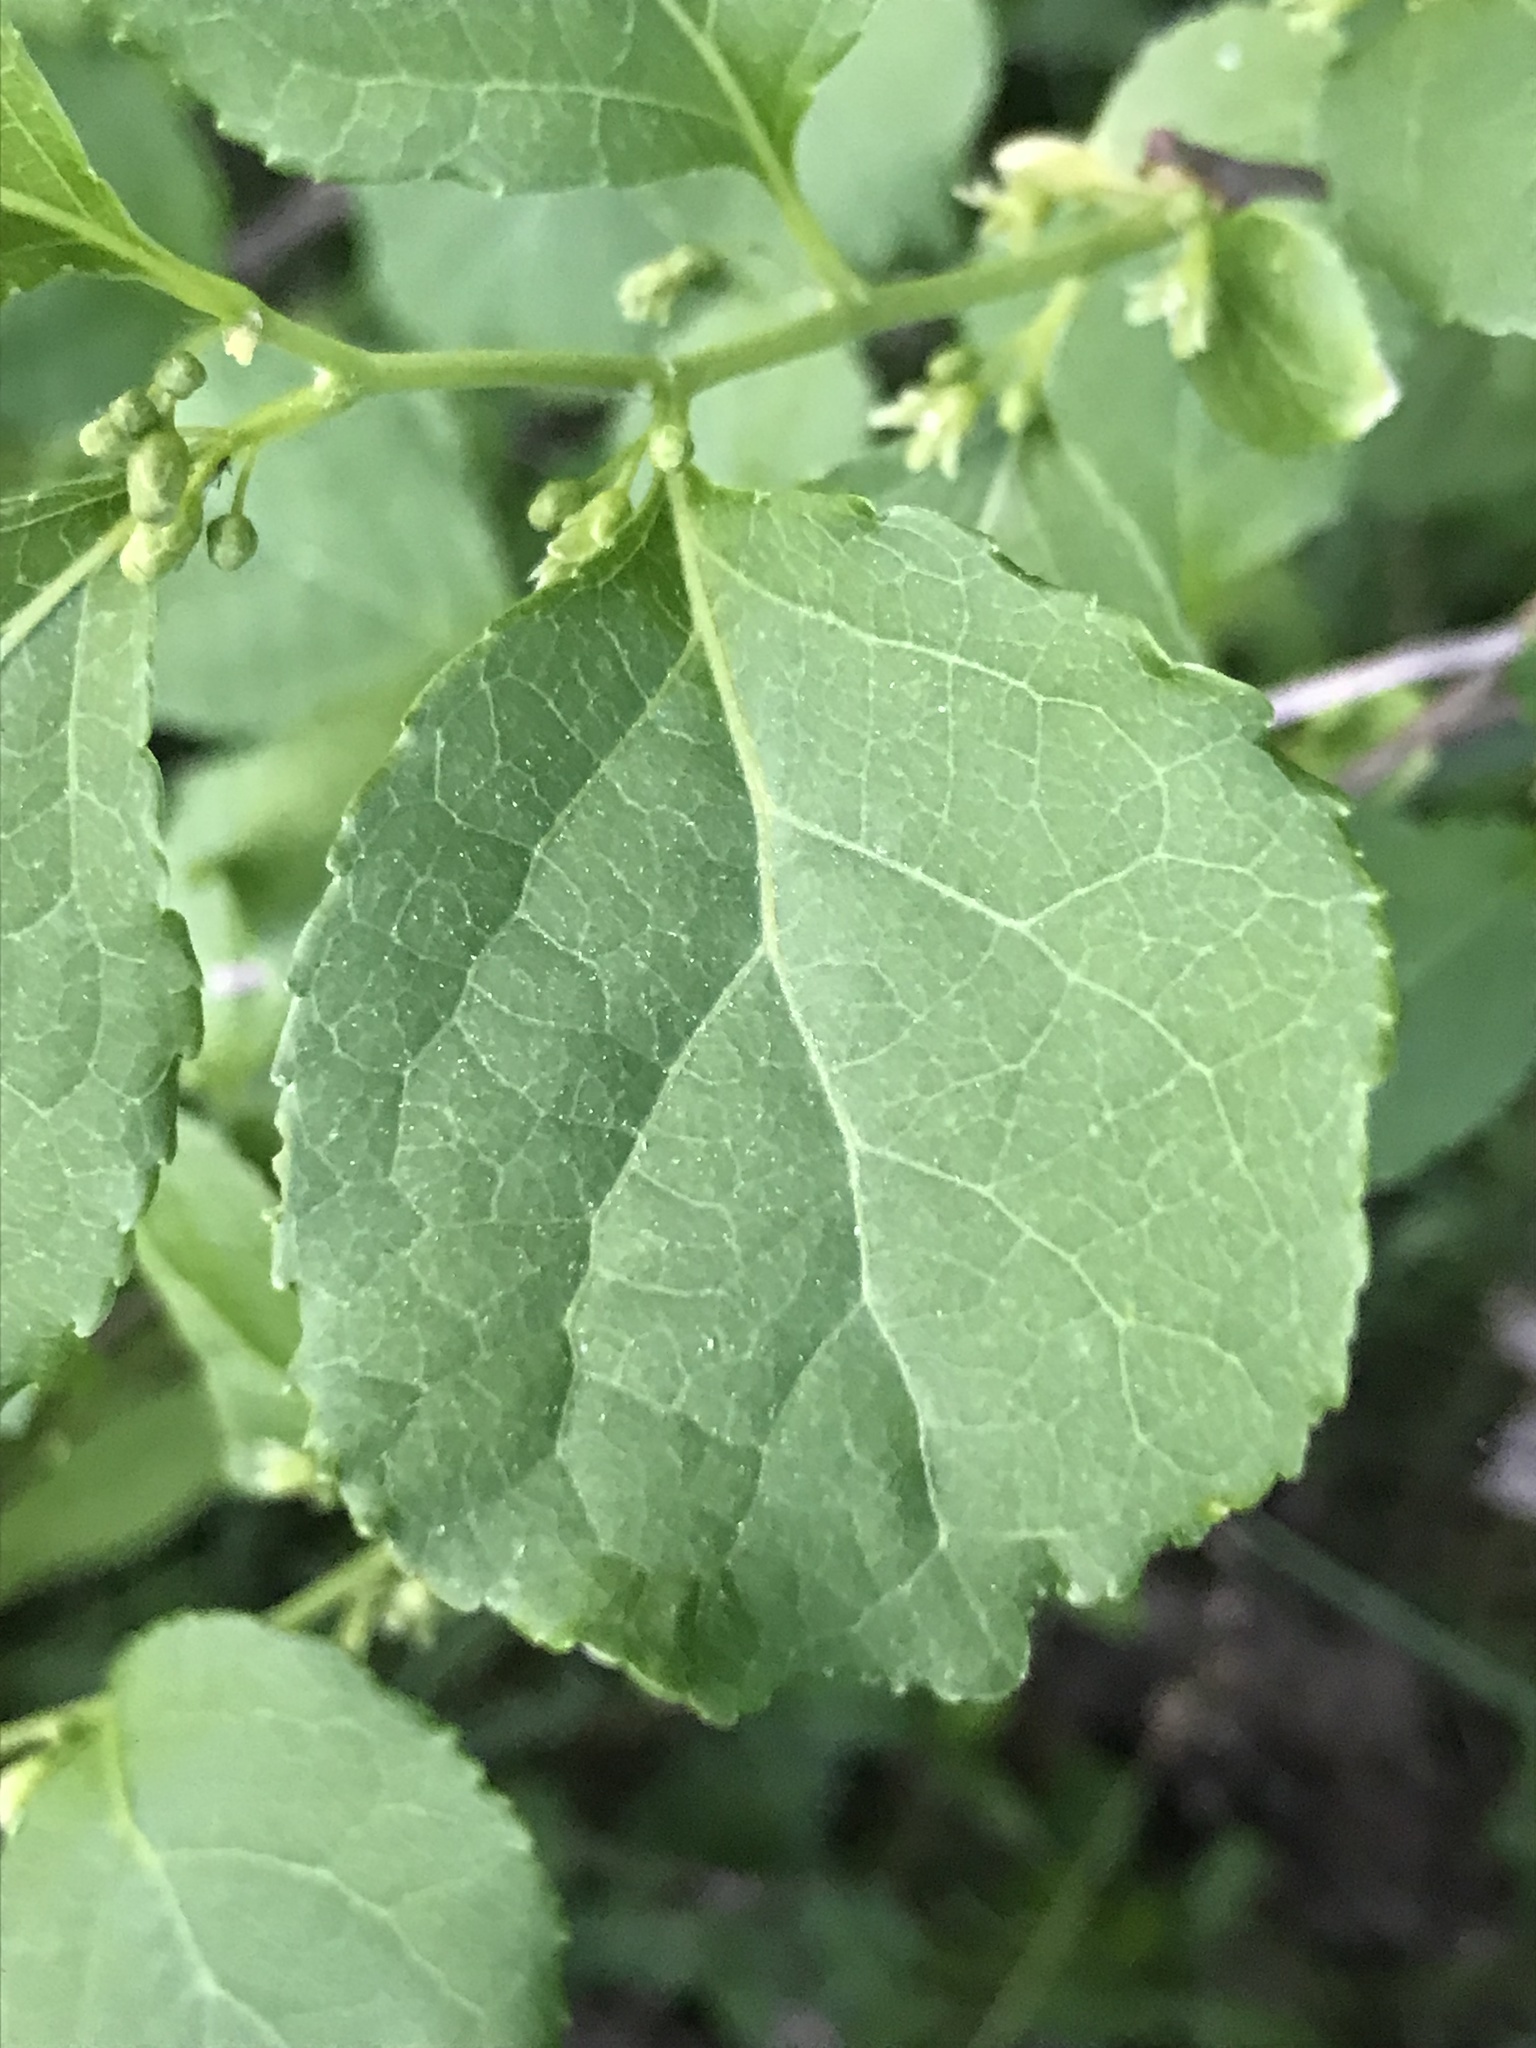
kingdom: Plantae
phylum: Tracheophyta
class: Magnoliopsida
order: Celastrales
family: Celastraceae
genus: Celastrus
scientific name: Celastrus orbiculatus
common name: Oriental bittersweet
